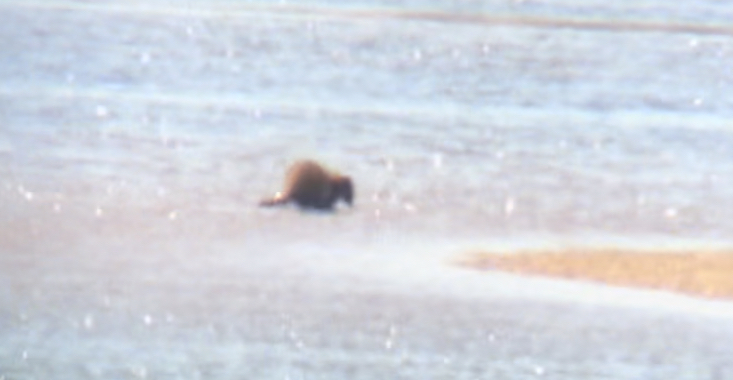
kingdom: Animalia
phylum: Chordata
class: Mammalia
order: Carnivora
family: Procyonidae
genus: Procyon
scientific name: Procyon lotor
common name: Raccoon
